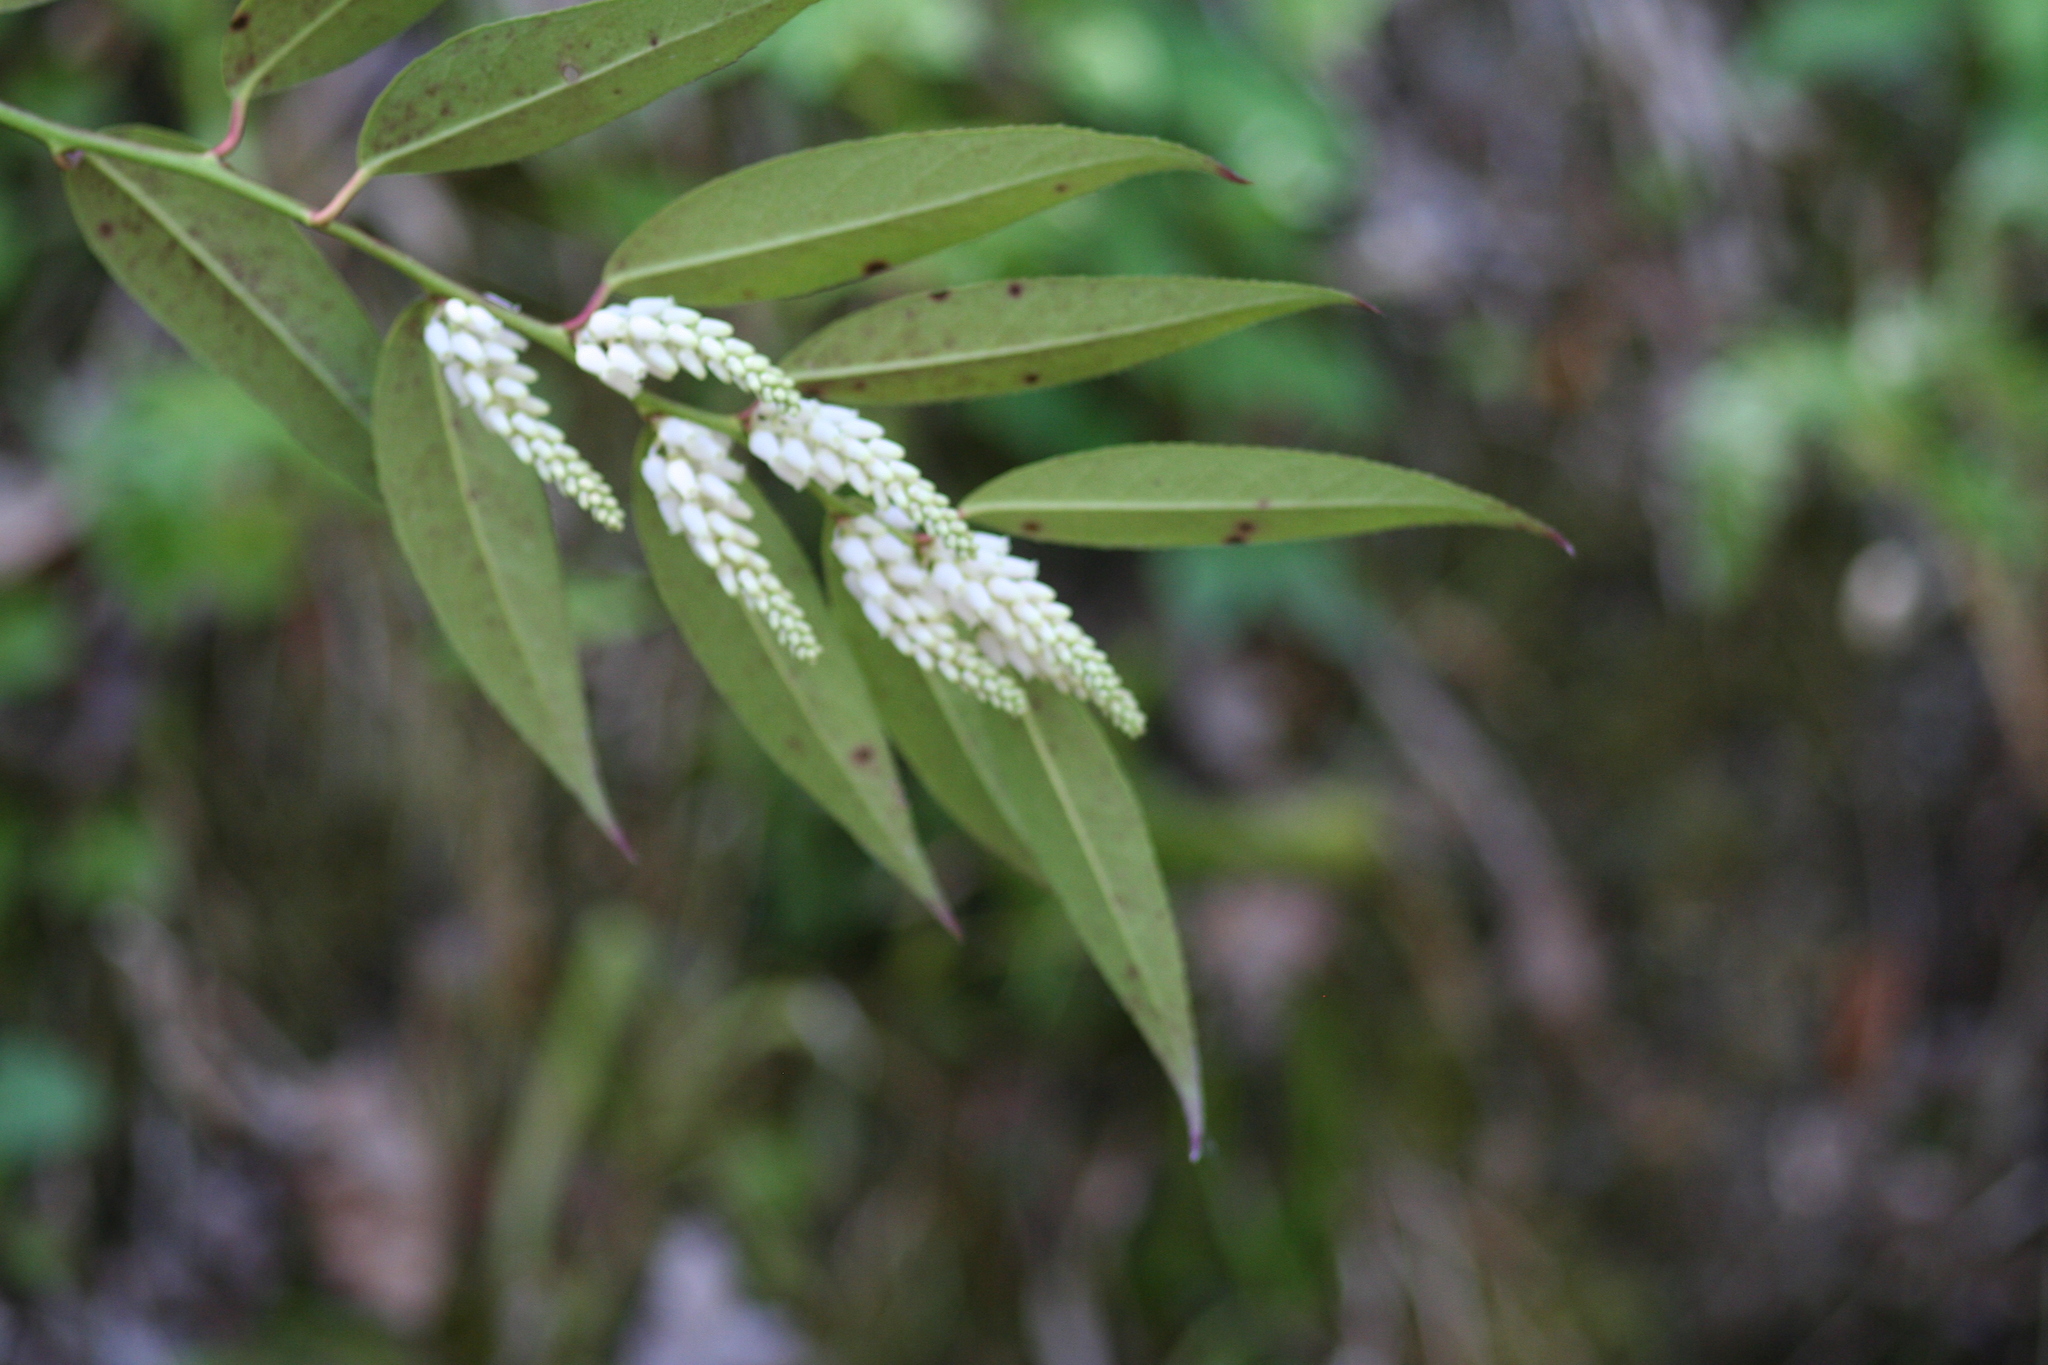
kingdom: Plantae
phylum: Tracheophyta
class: Magnoliopsida
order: Ericales
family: Ericaceae
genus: Leucothoe
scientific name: Leucothoe fontanesiana
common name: Fetterbush
